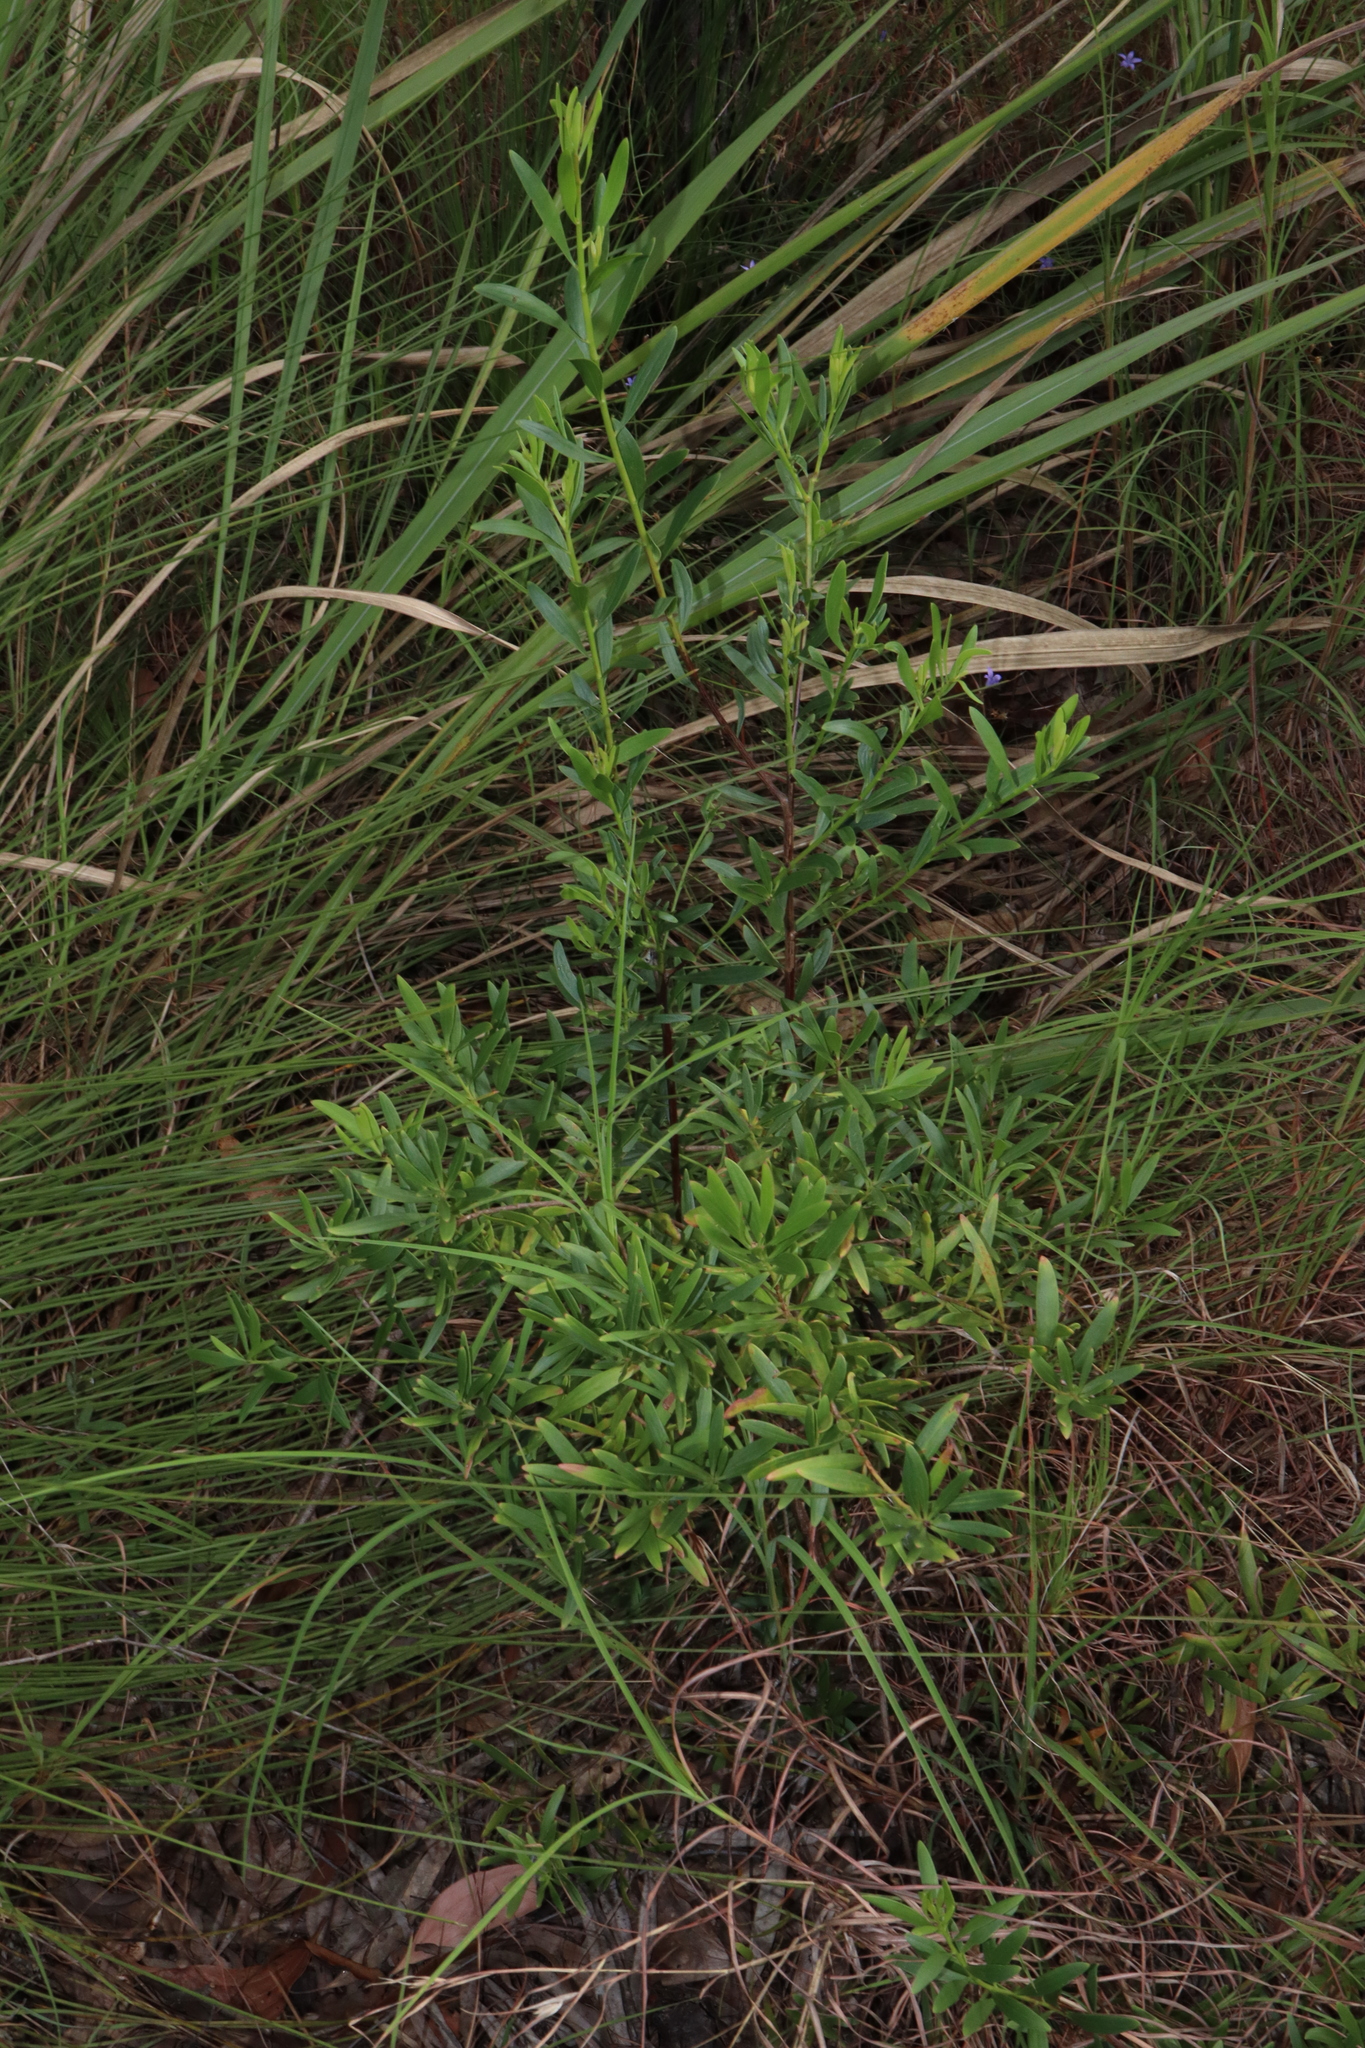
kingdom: Plantae
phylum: Tracheophyta
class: Magnoliopsida
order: Apiales
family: Apiaceae
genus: Platysace
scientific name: Platysace valida
